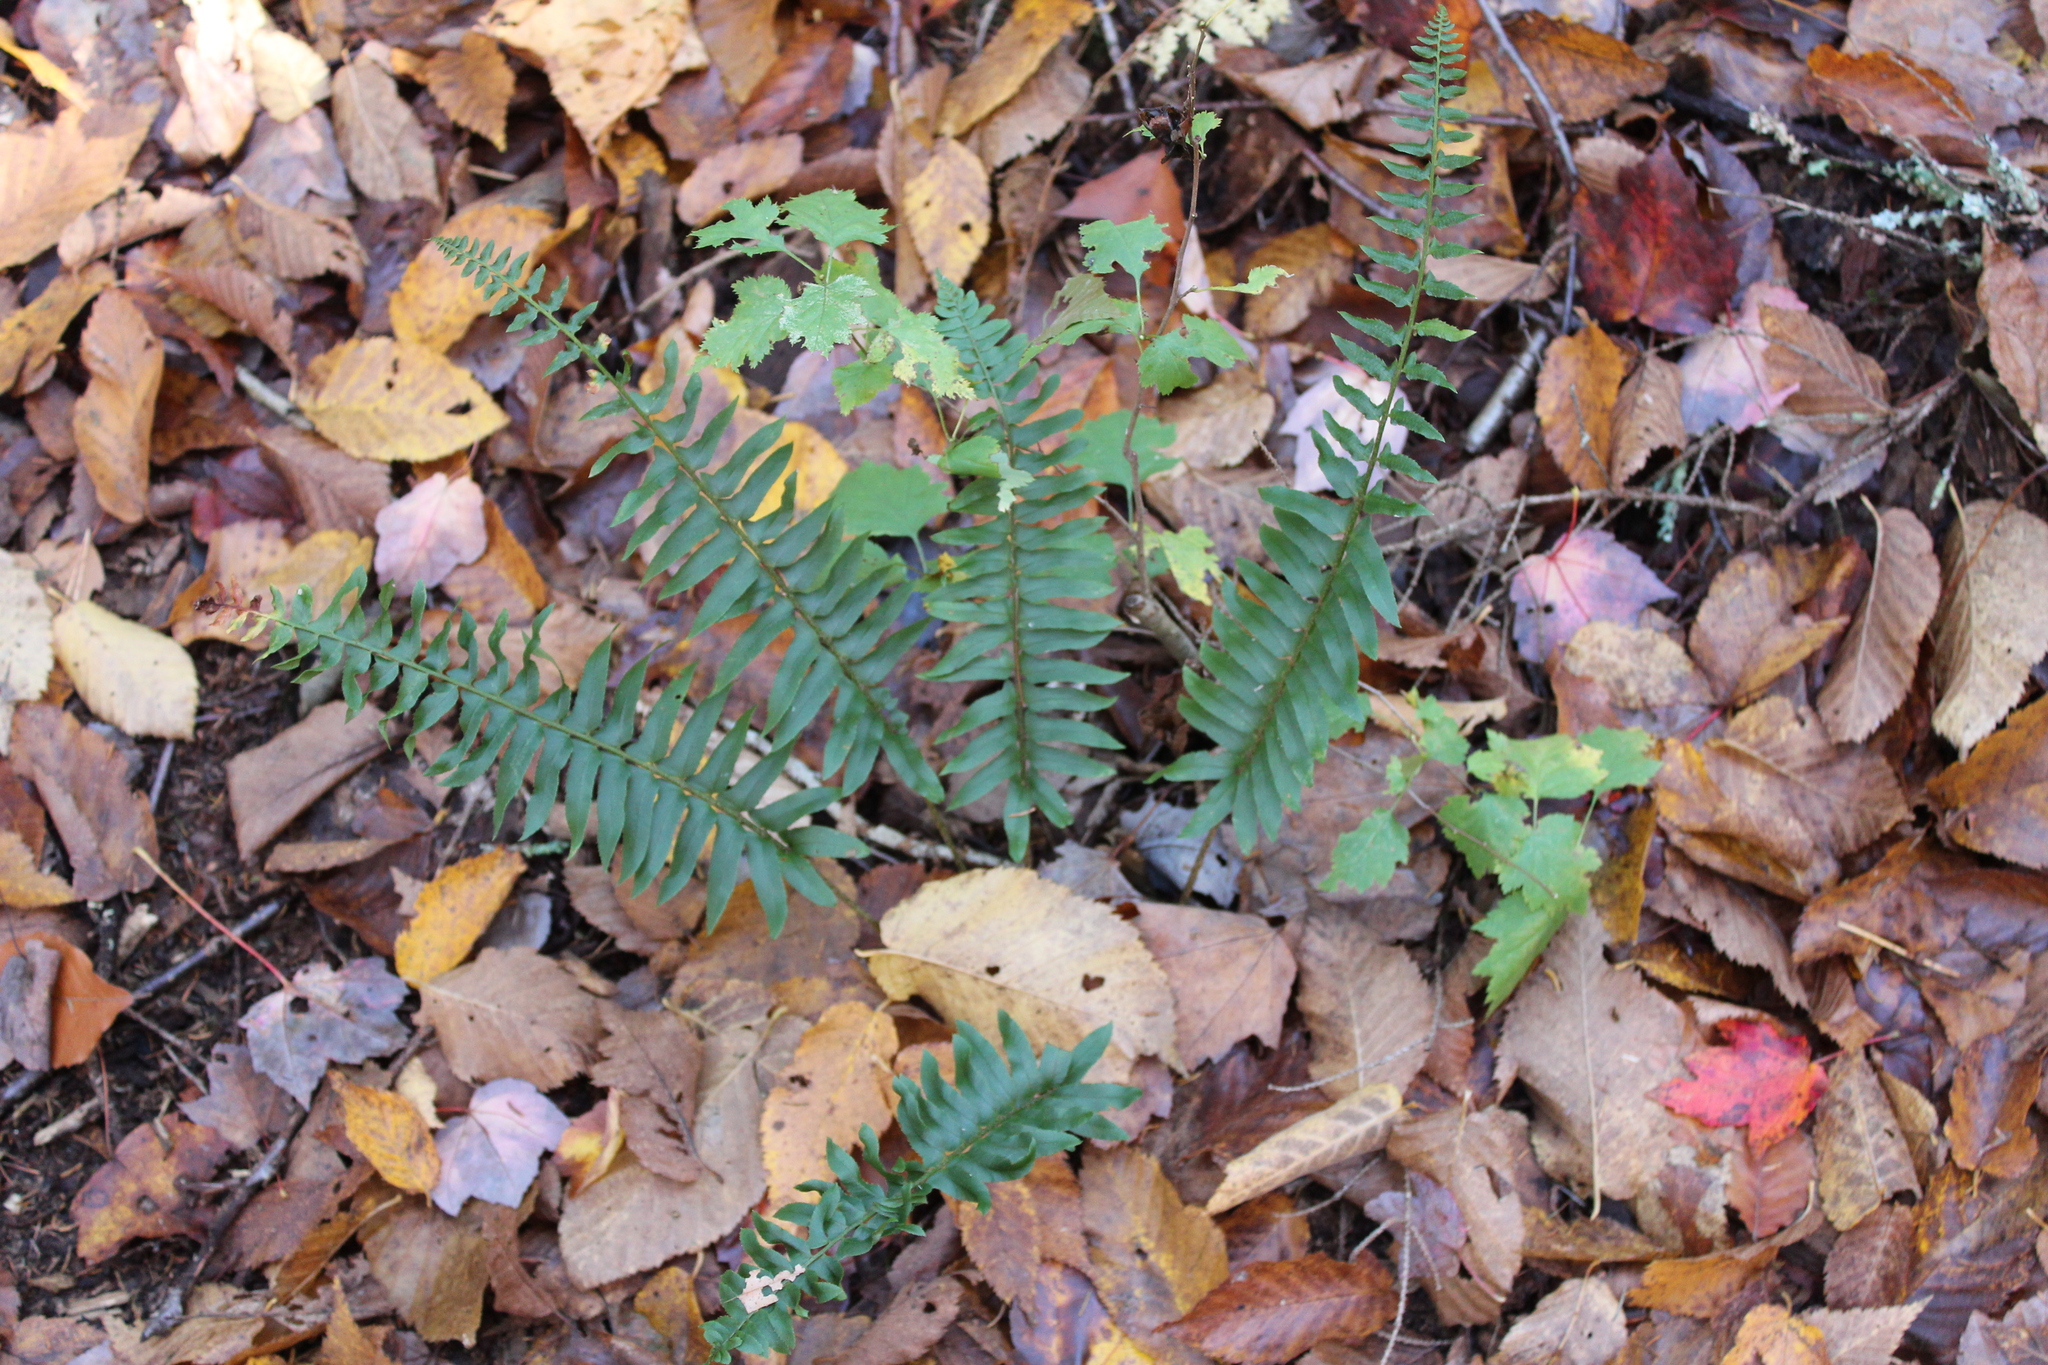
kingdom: Plantae
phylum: Tracheophyta
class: Polypodiopsida
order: Polypodiales
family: Dryopteridaceae
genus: Polystichum
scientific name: Polystichum acrostichoides
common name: Christmas fern
